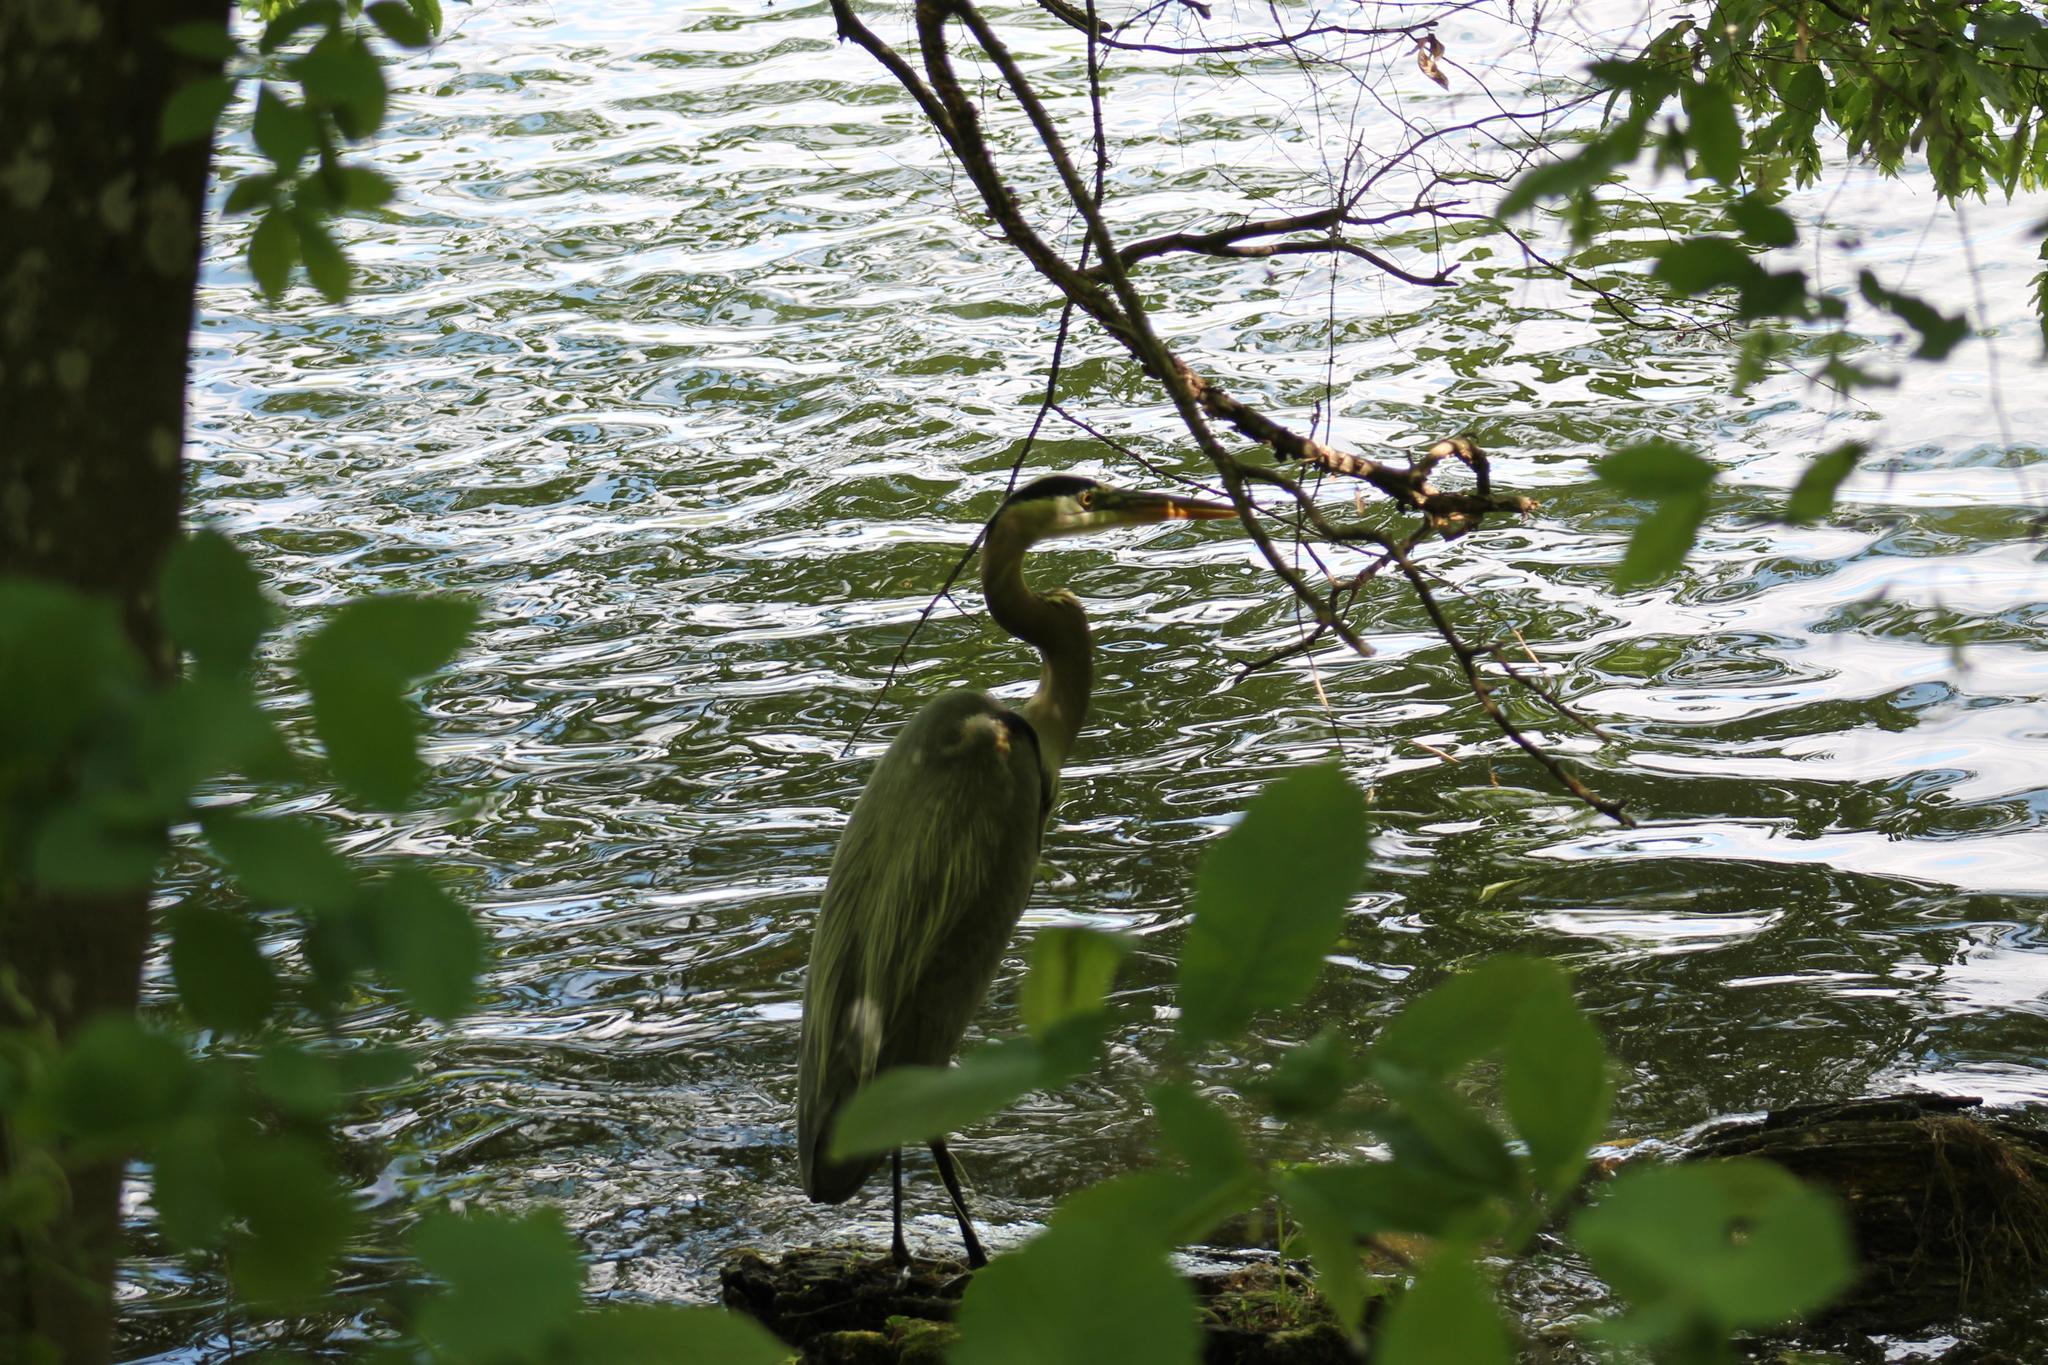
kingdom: Animalia
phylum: Chordata
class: Aves
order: Pelecaniformes
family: Ardeidae
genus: Ardea
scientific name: Ardea herodias
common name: Great blue heron
